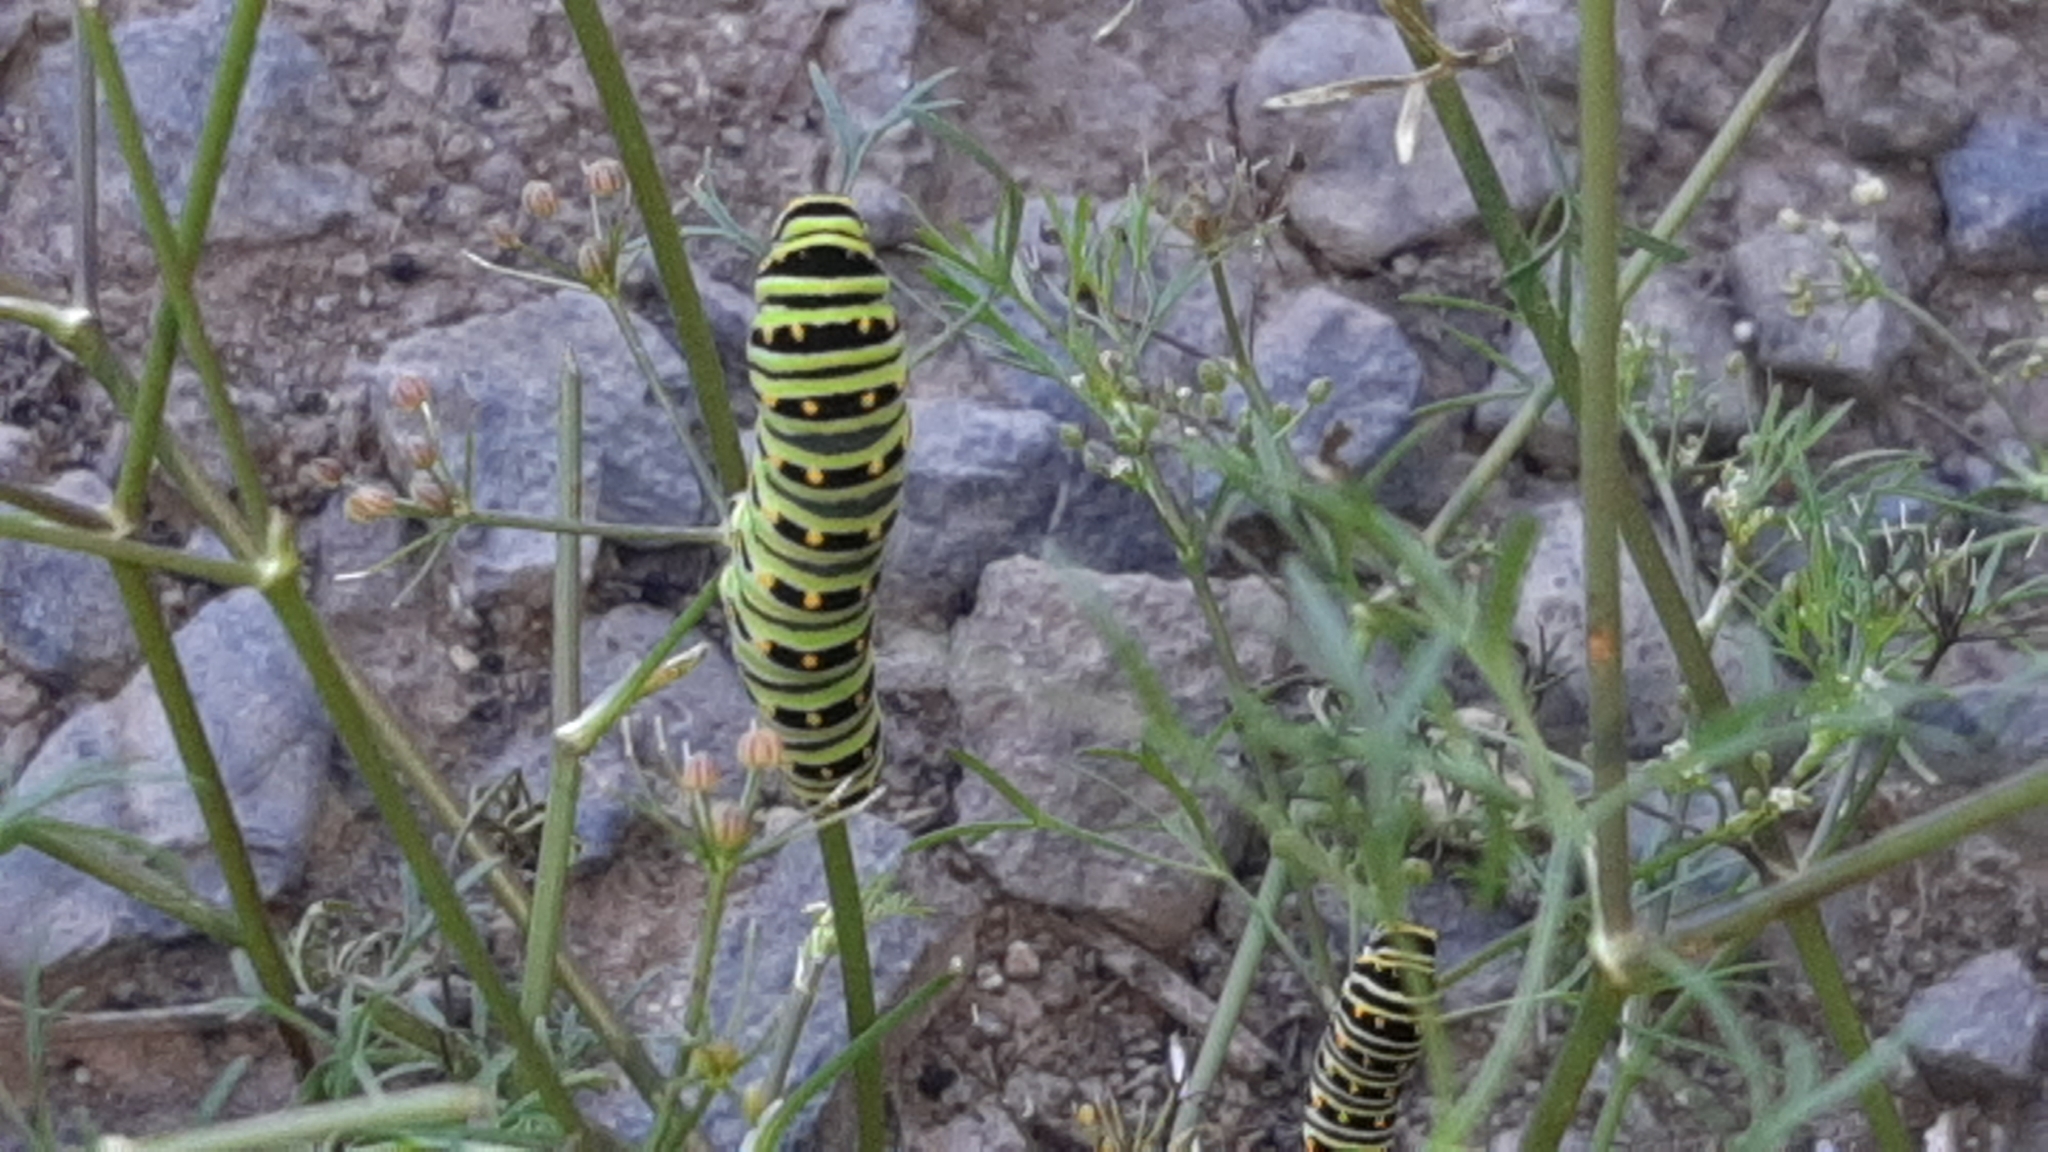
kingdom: Animalia
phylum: Arthropoda
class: Insecta
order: Lepidoptera
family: Papilionidae
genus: Papilio
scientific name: Papilio polyxenes
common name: Black swallowtail
